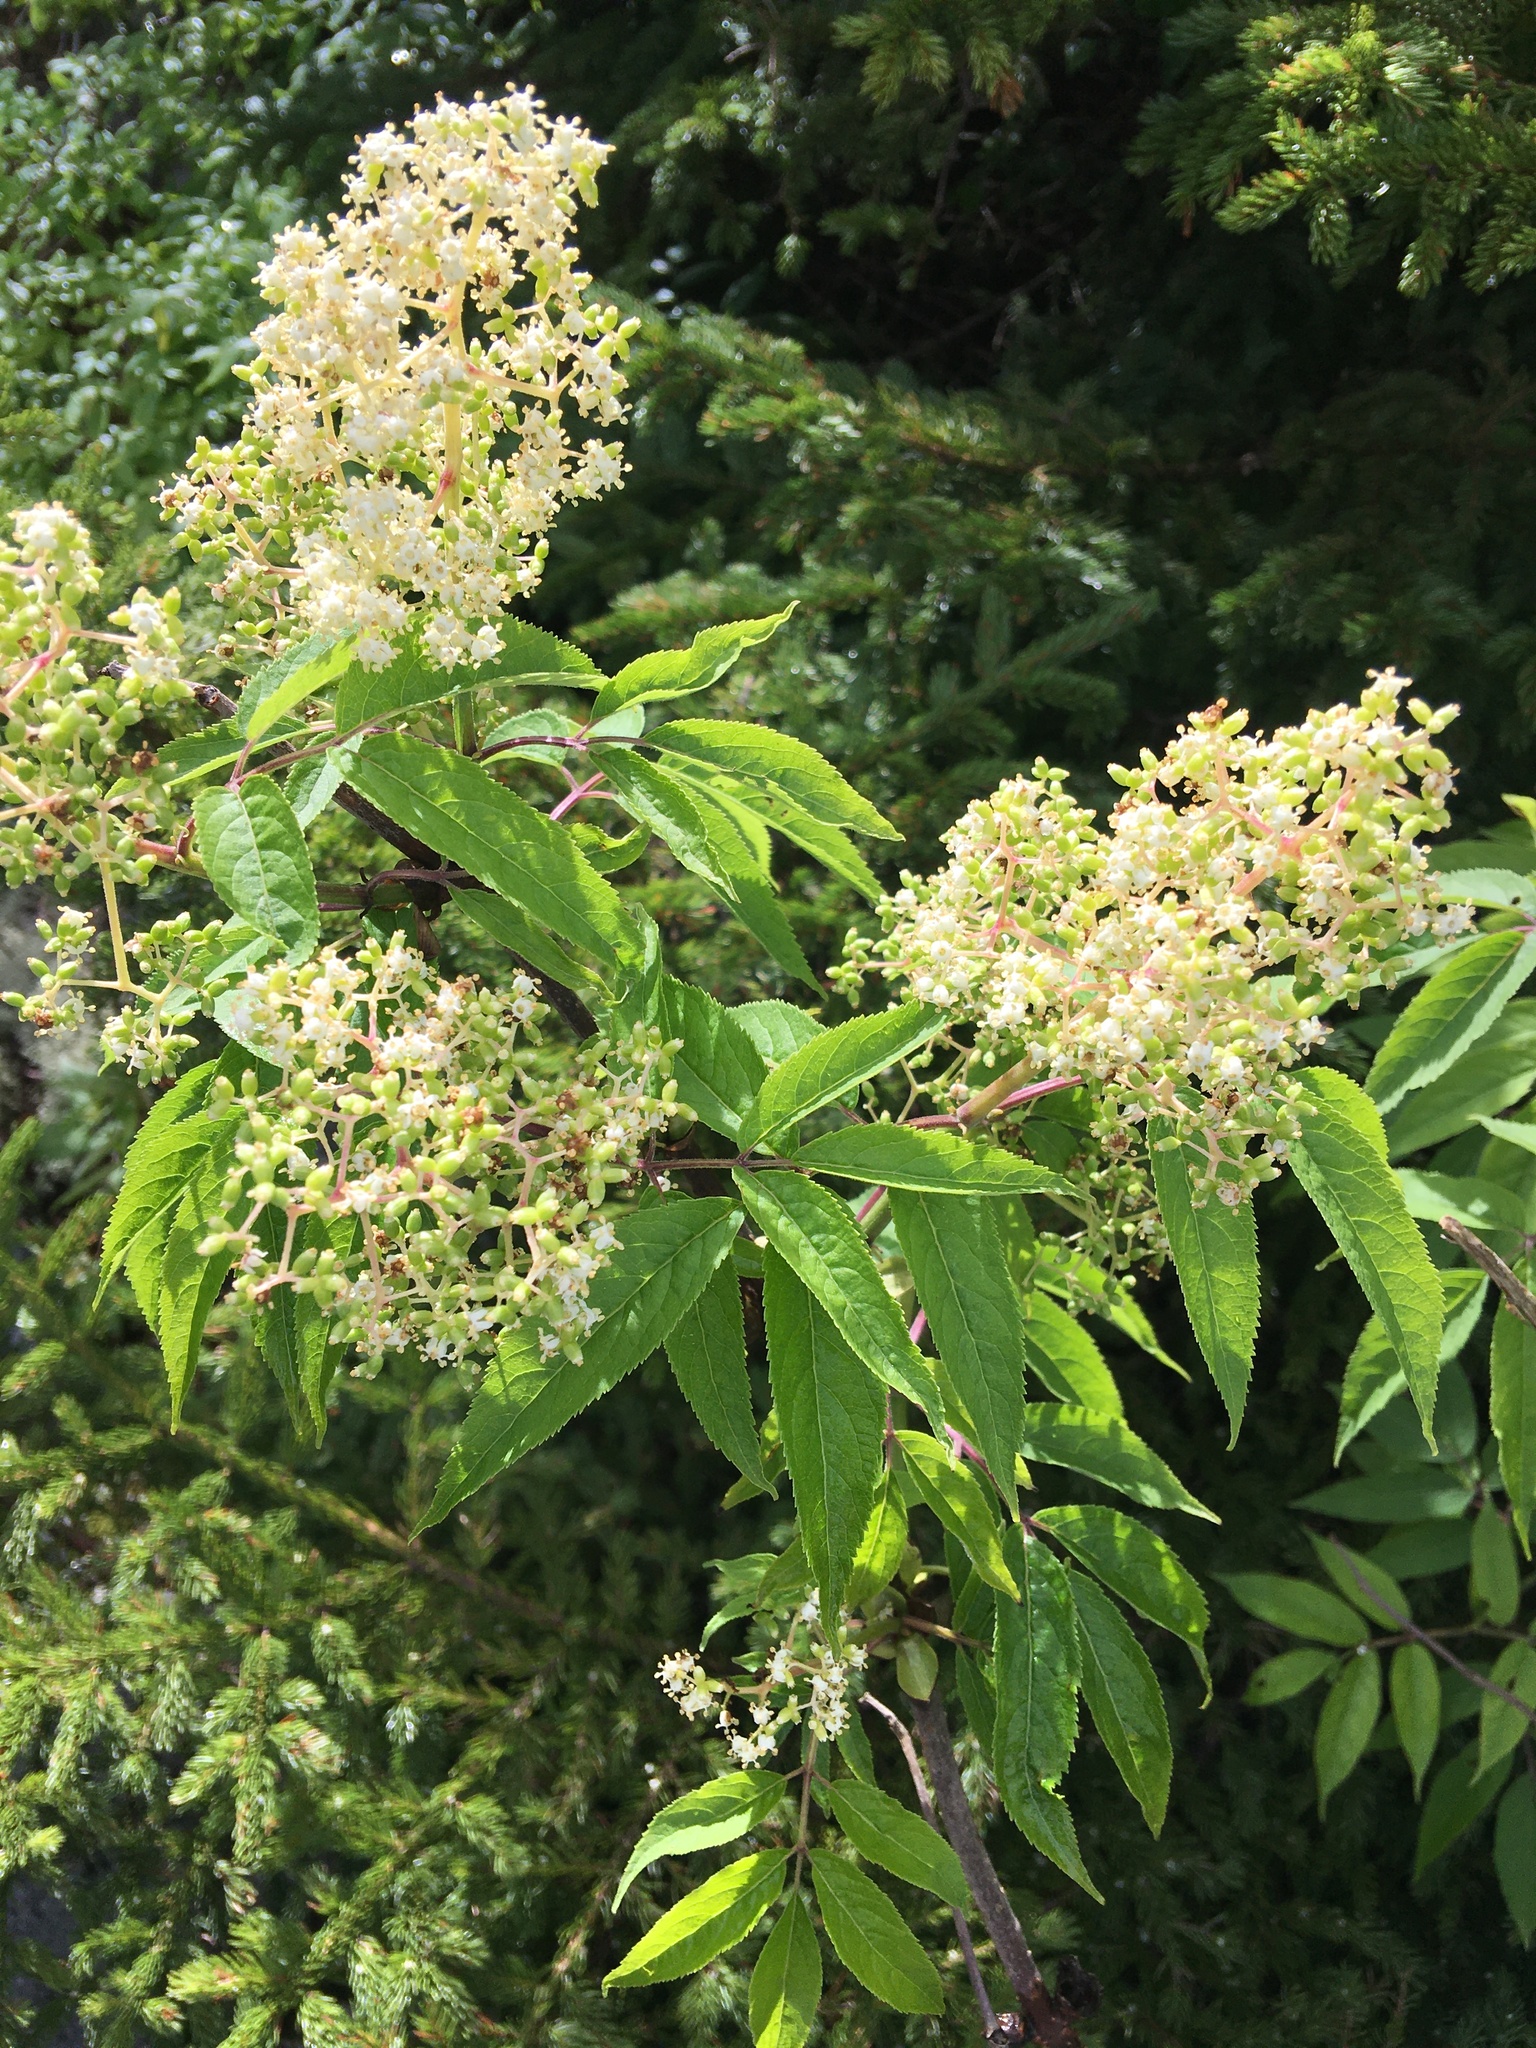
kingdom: Plantae
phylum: Tracheophyta
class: Magnoliopsida
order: Dipsacales
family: Viburnaceae
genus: Sambucus
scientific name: Sambucus racemosa
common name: Red-berried elder
